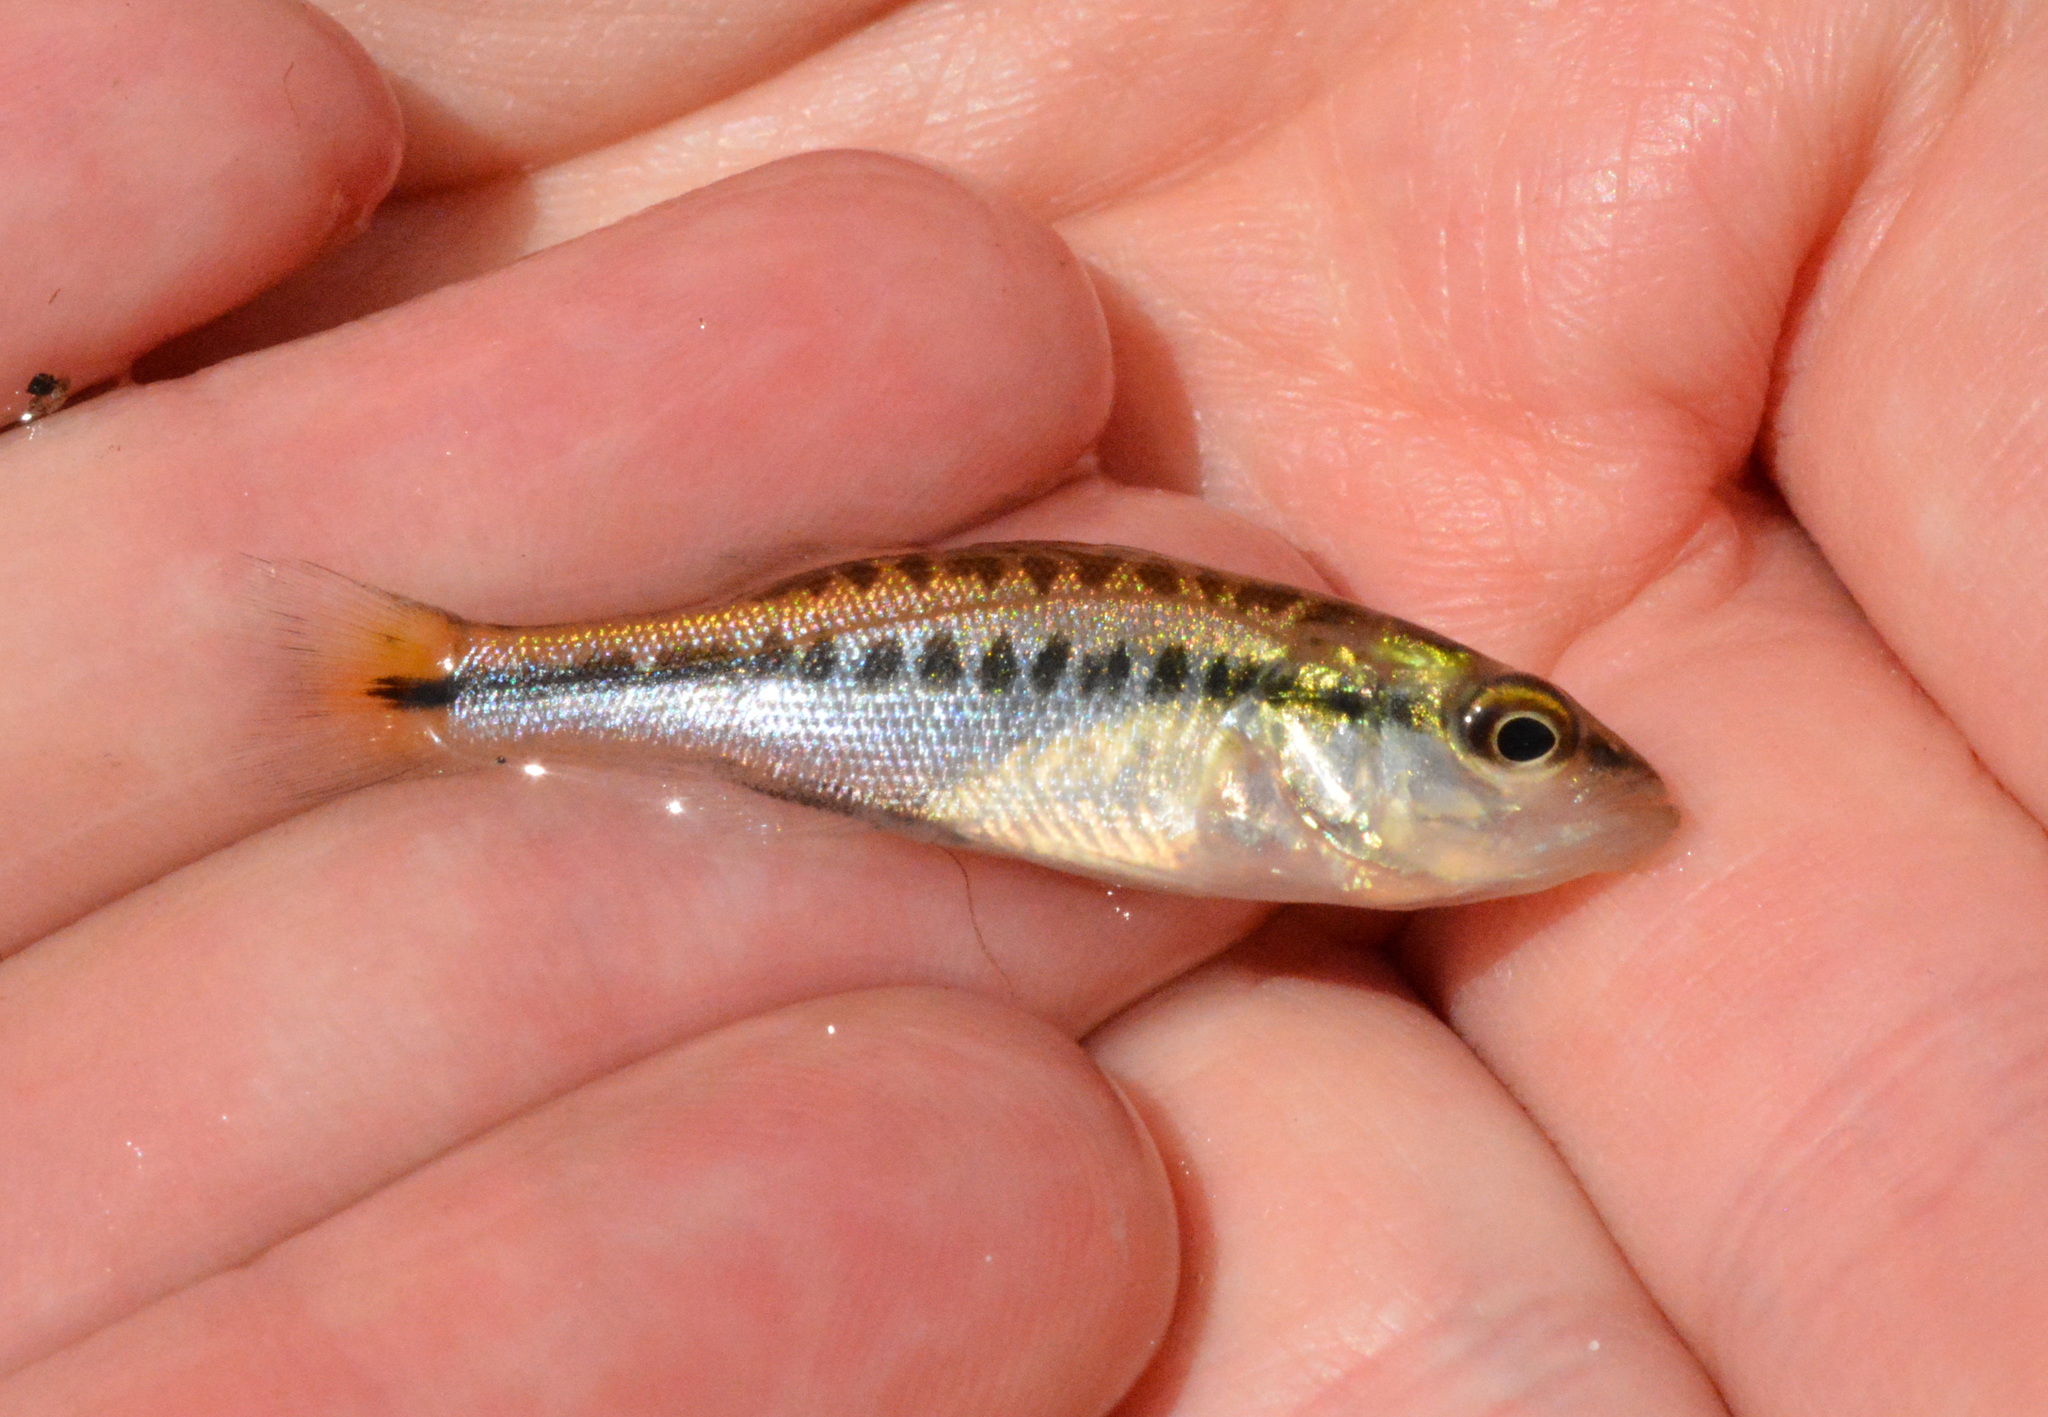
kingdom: Animalia
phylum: Chordata
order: Perciformes
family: Centrarchidae
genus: Micropterus
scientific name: Micropterus
